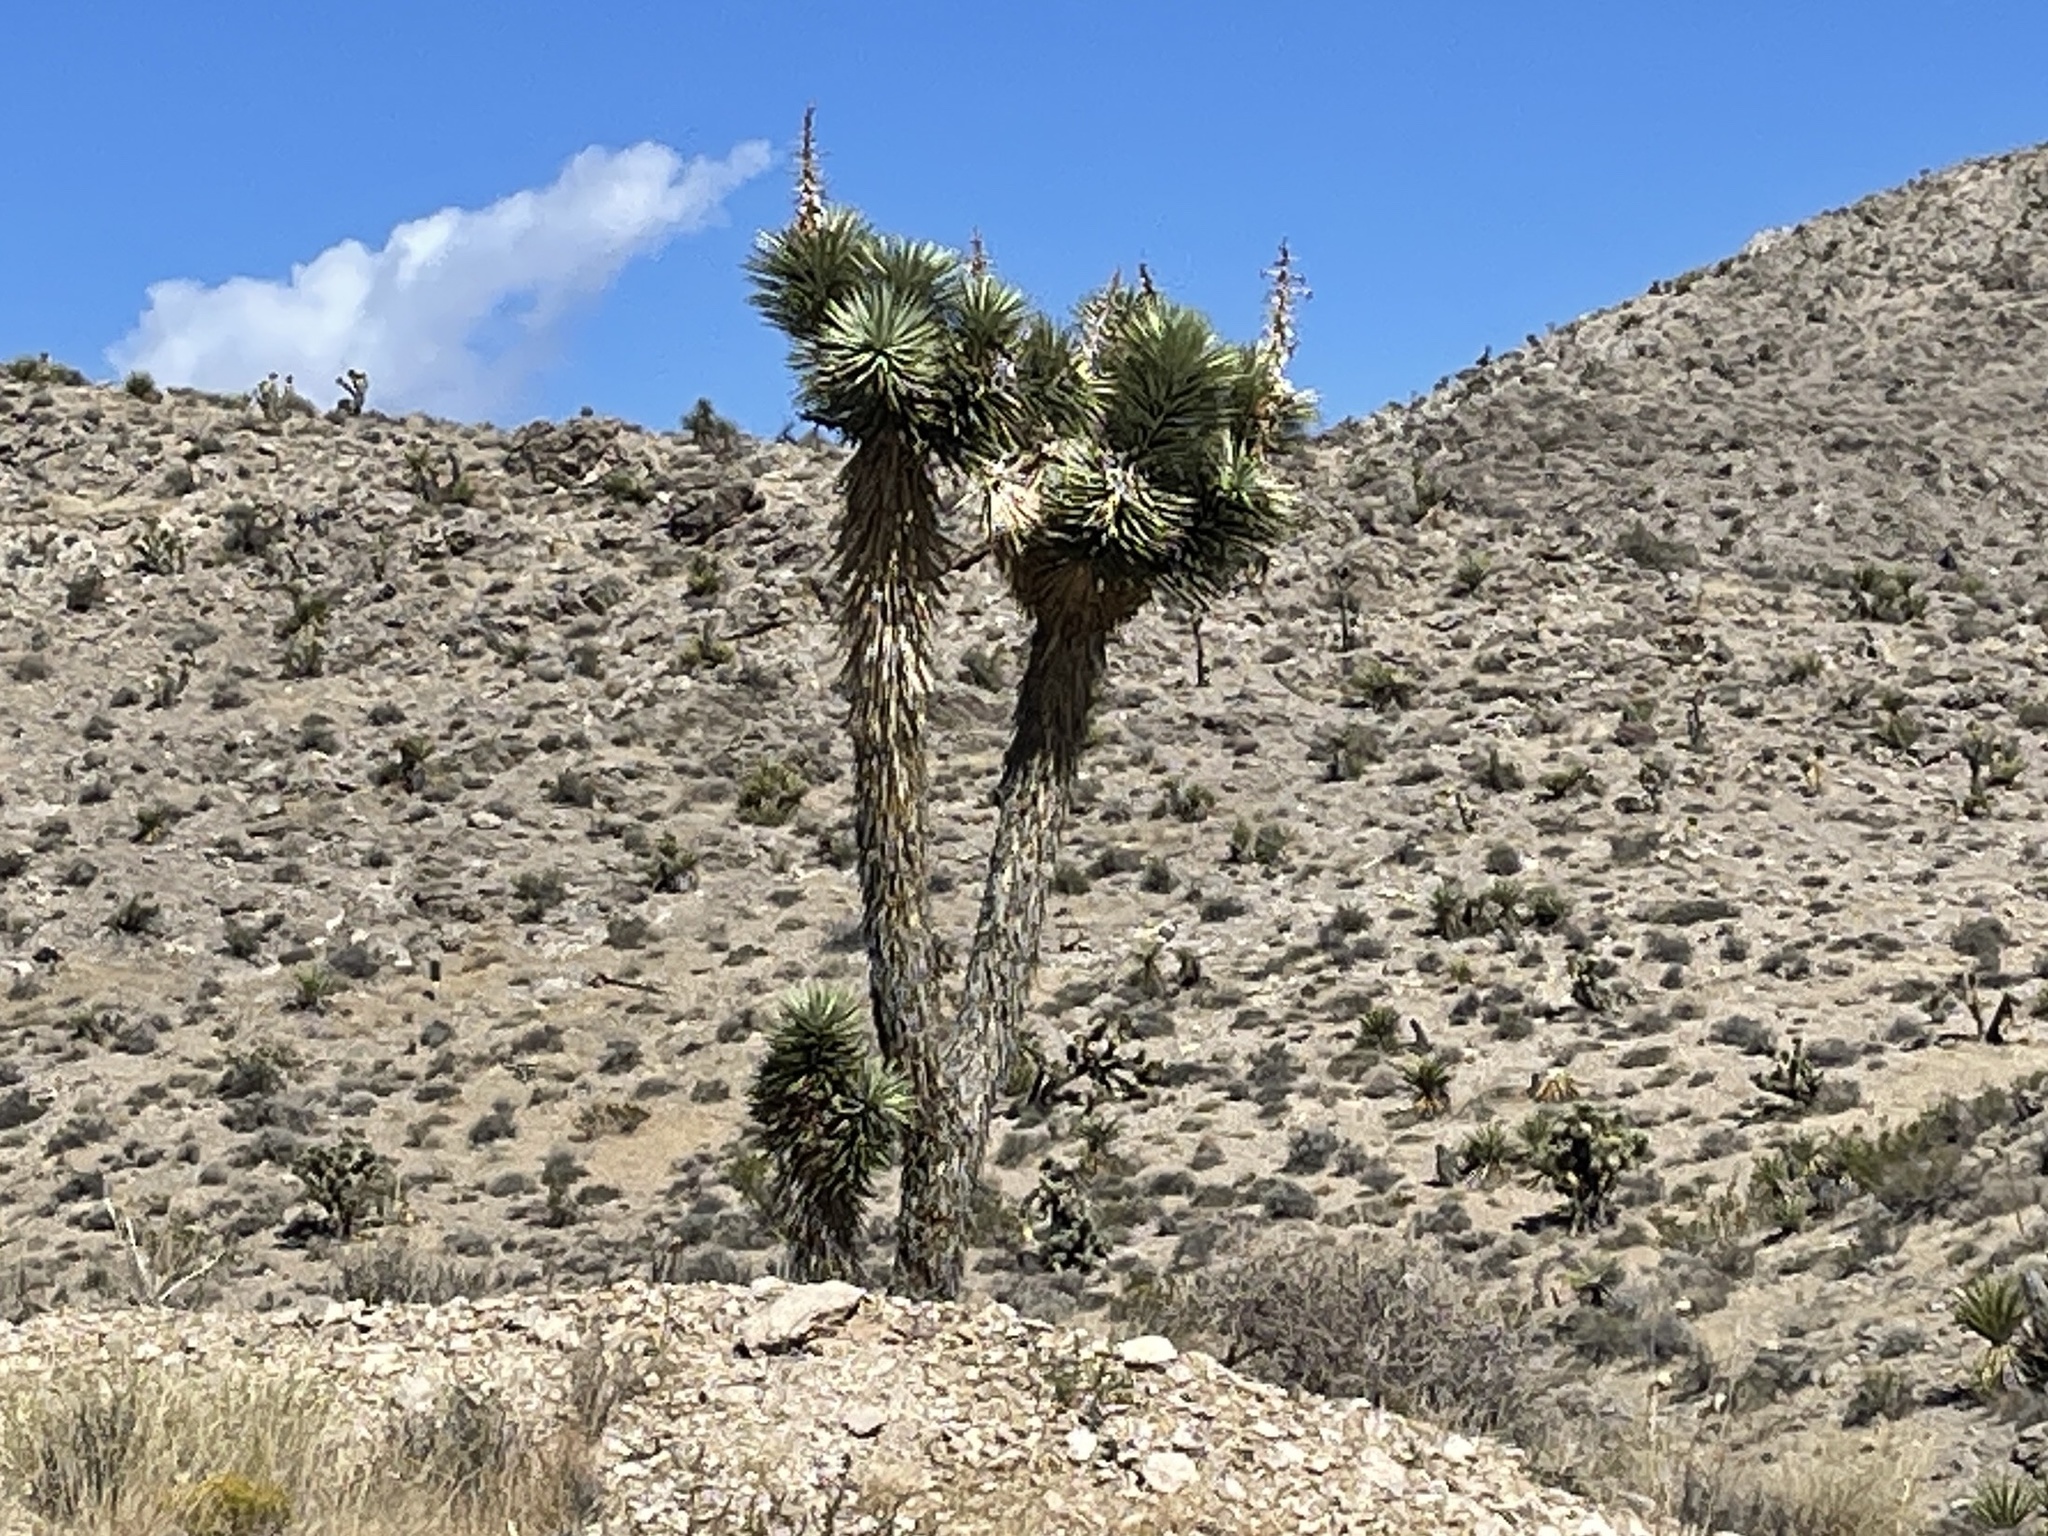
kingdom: Plantae
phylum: Tracheophyta
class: Liliopsida
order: Asparagales
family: Asparagaceae
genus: Yucca
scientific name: Yucca brevifolia
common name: Joshua tree
